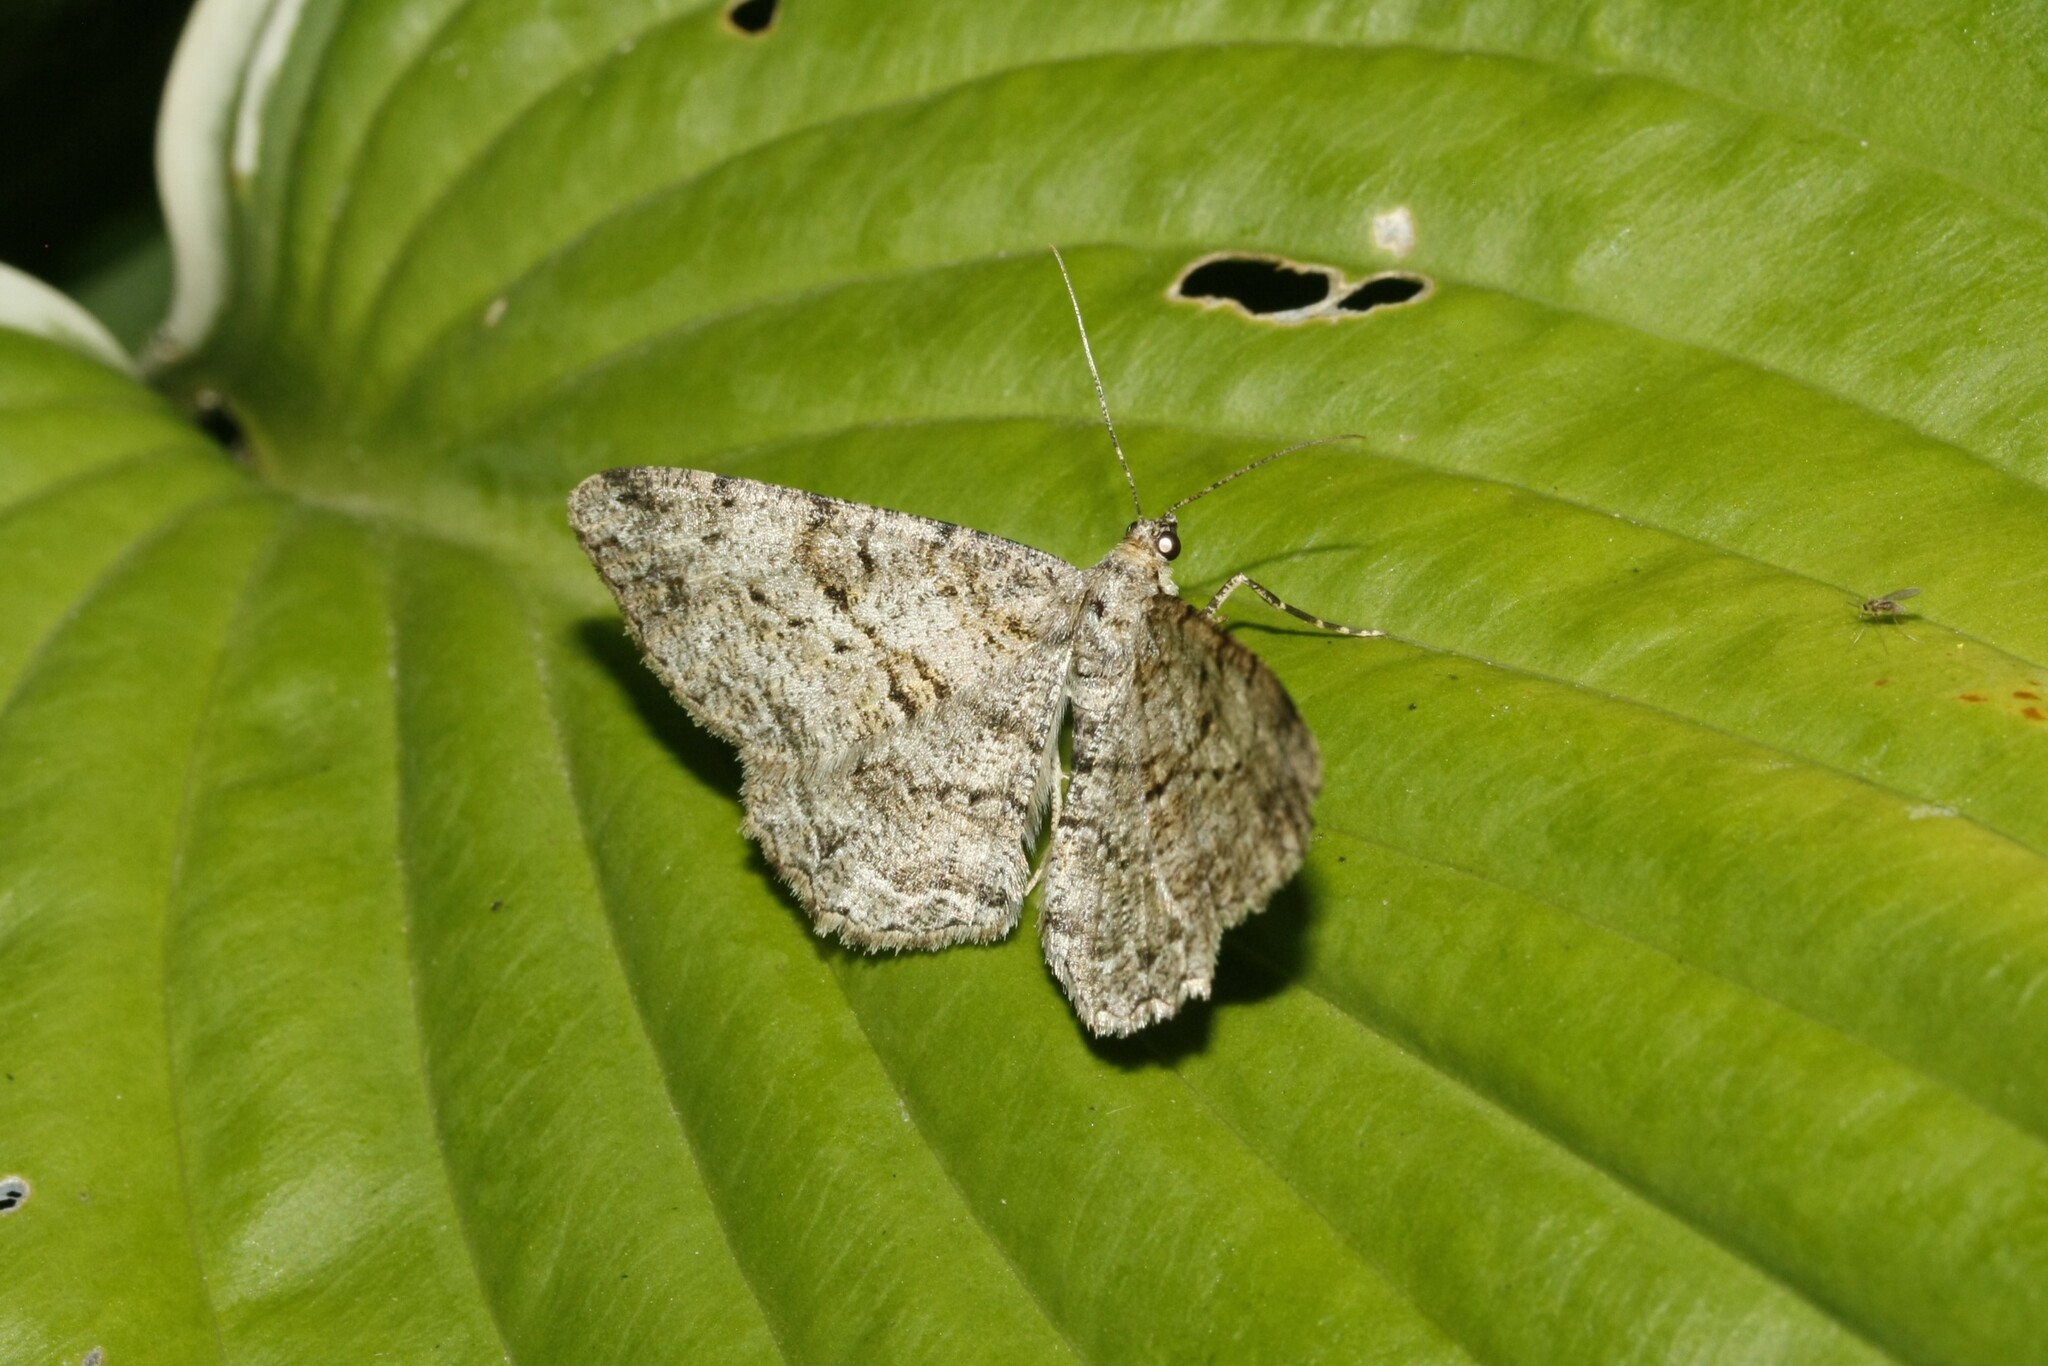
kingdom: Animalia
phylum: Arthropoda
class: Insecta
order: Lepidoptera
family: Geometridae
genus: Peribatodes
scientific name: Peribatodes rhomboidaria
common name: Willow beauty
